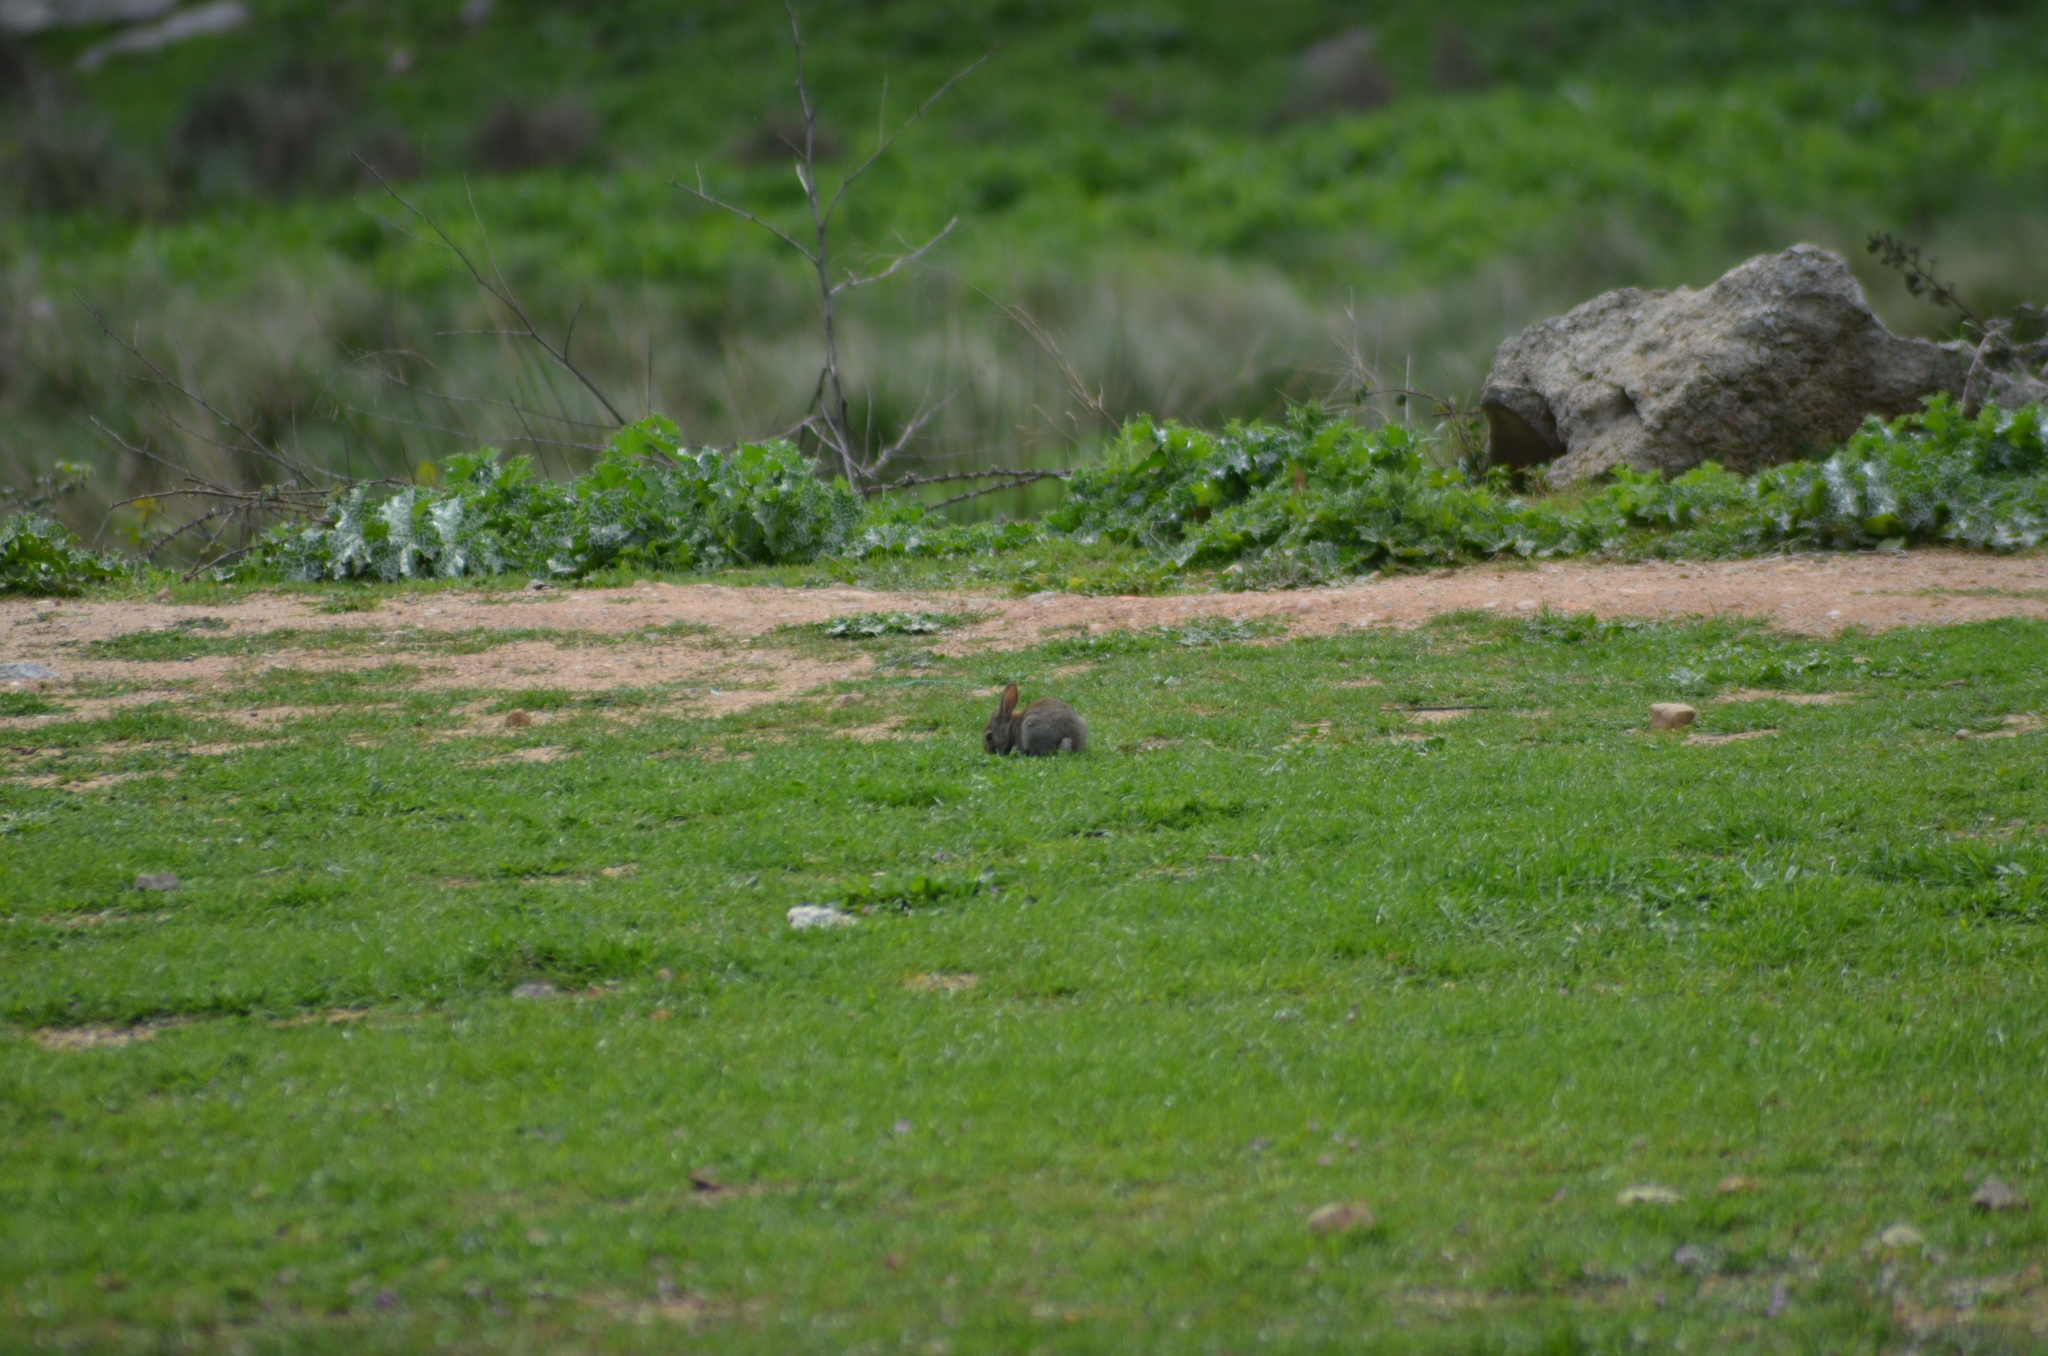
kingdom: Animalia
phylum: Chordata
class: Mammalia
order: Lagomorpha
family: Leporidae
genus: Oryctolagus
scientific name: Oryctolagus cuniculus
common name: European rabbit
